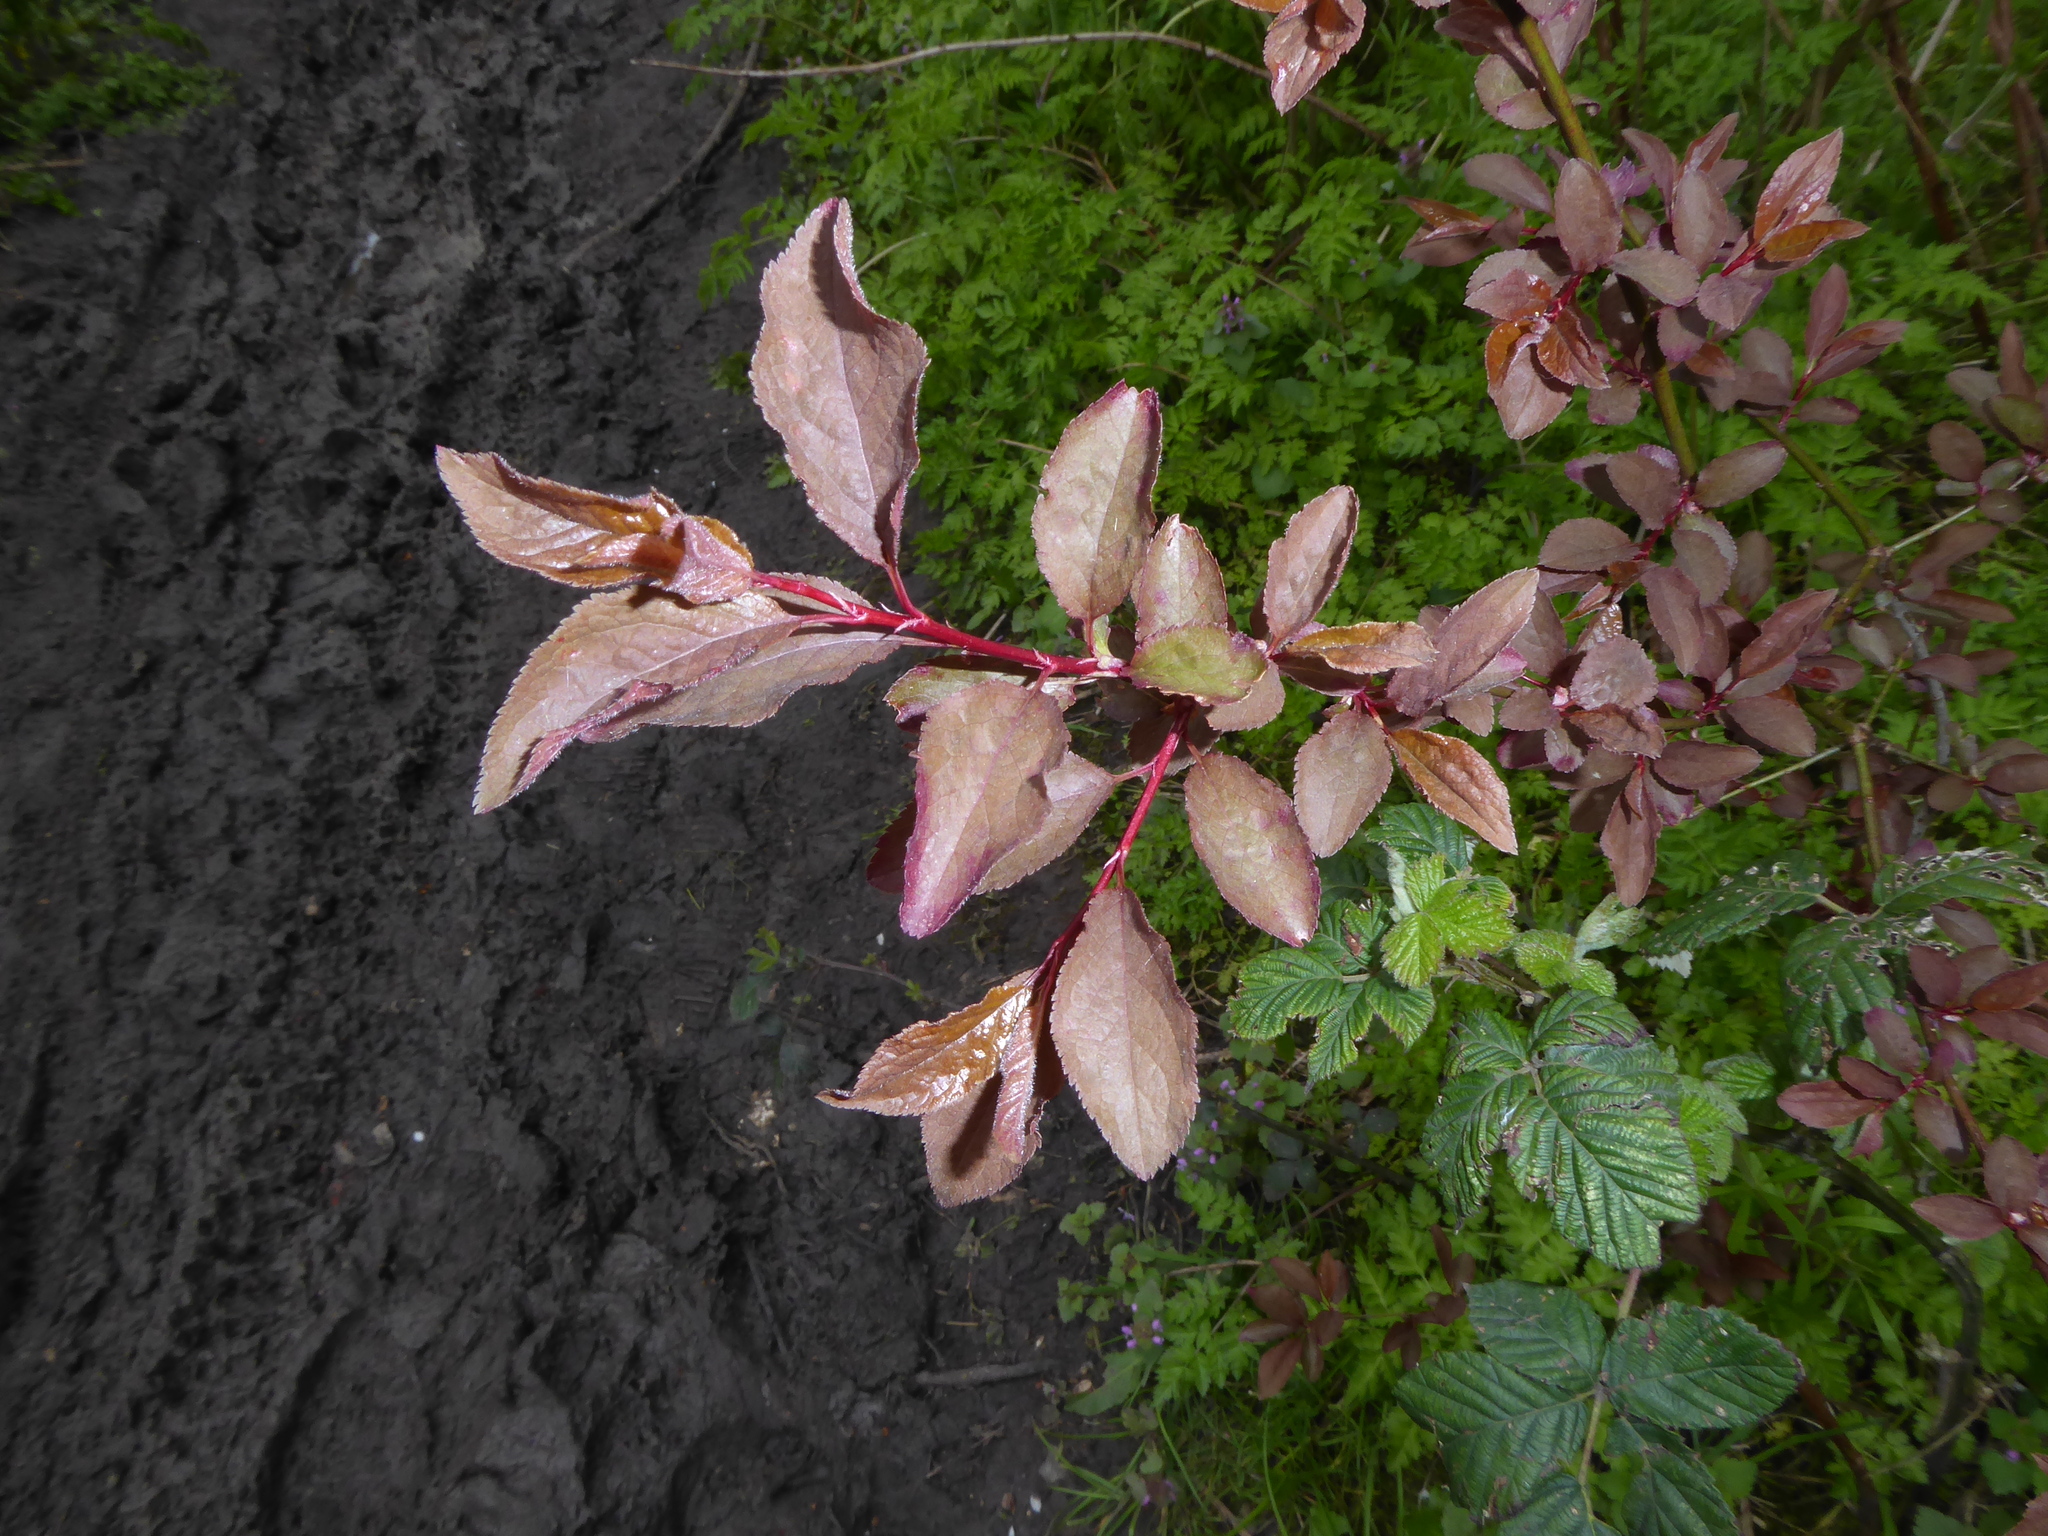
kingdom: Plantae
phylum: Tracheophyta
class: Magnoliopsida
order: Rosales
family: Rosaceae
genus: Prunus
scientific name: Prunus cerasifera
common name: Cherry plum
